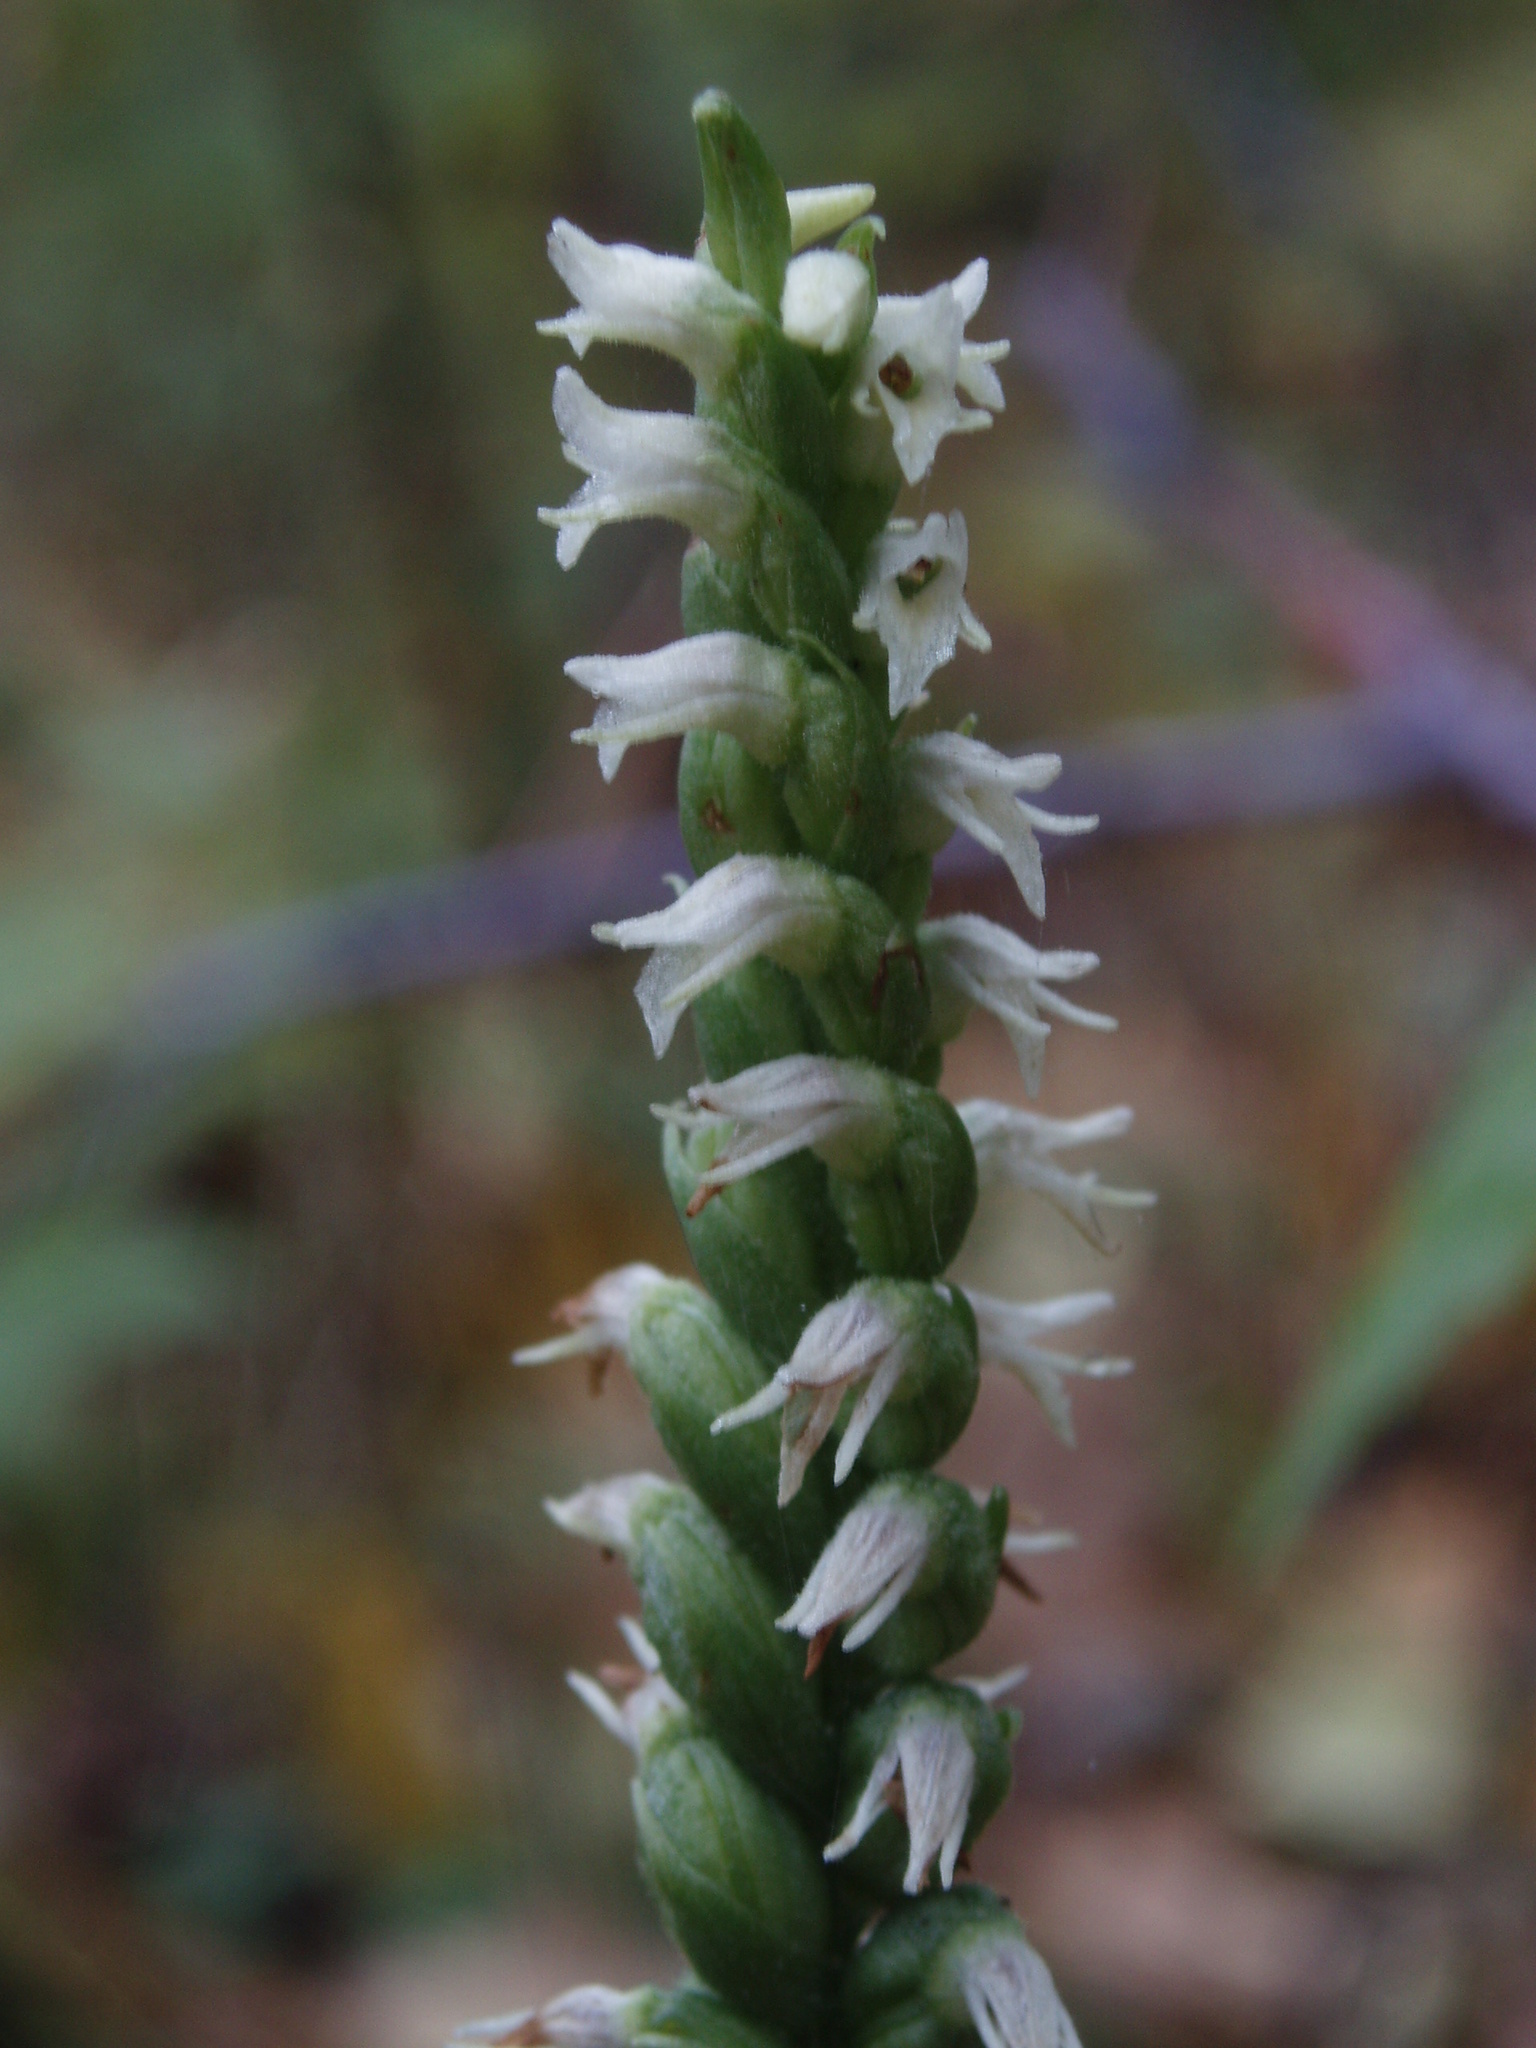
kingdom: Plantae
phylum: Tracheophyta
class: Liliopsida
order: Asparagales
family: Orchidaceae
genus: Spiranthes
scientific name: Spiranthes ovalis
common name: October ladies'-tresses
